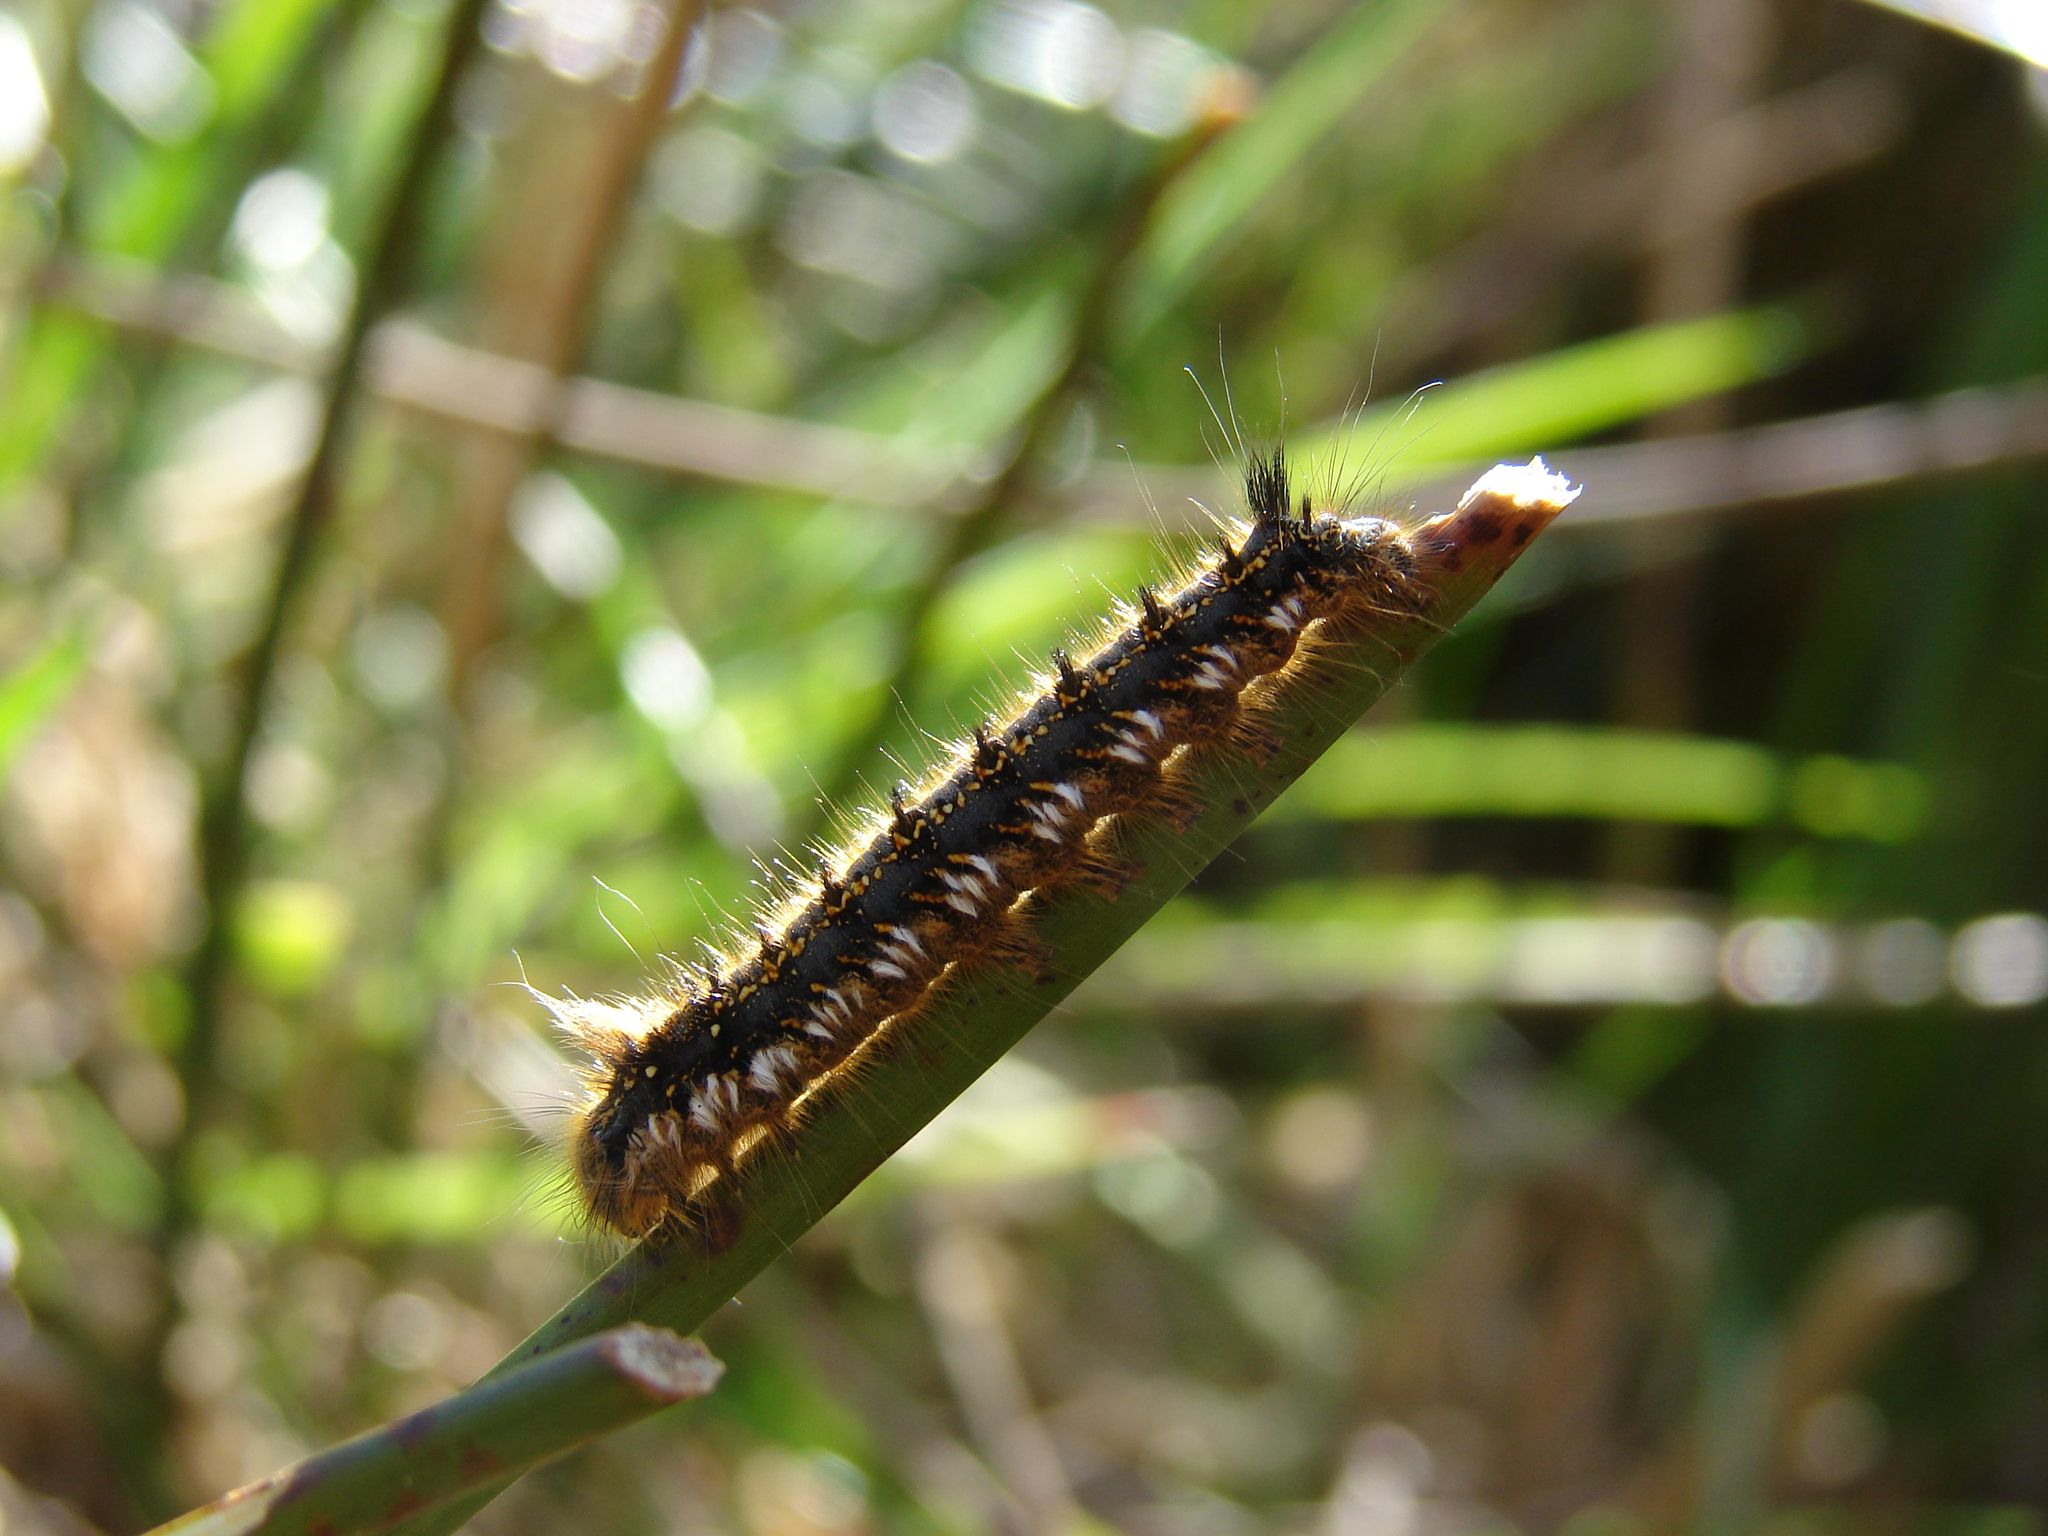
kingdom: Animalia
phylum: Arthropoda
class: Insecta
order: Lepidoptera
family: Lasiocampidae
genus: Euthrix
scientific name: Euthrix potatoria
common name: Drinker
